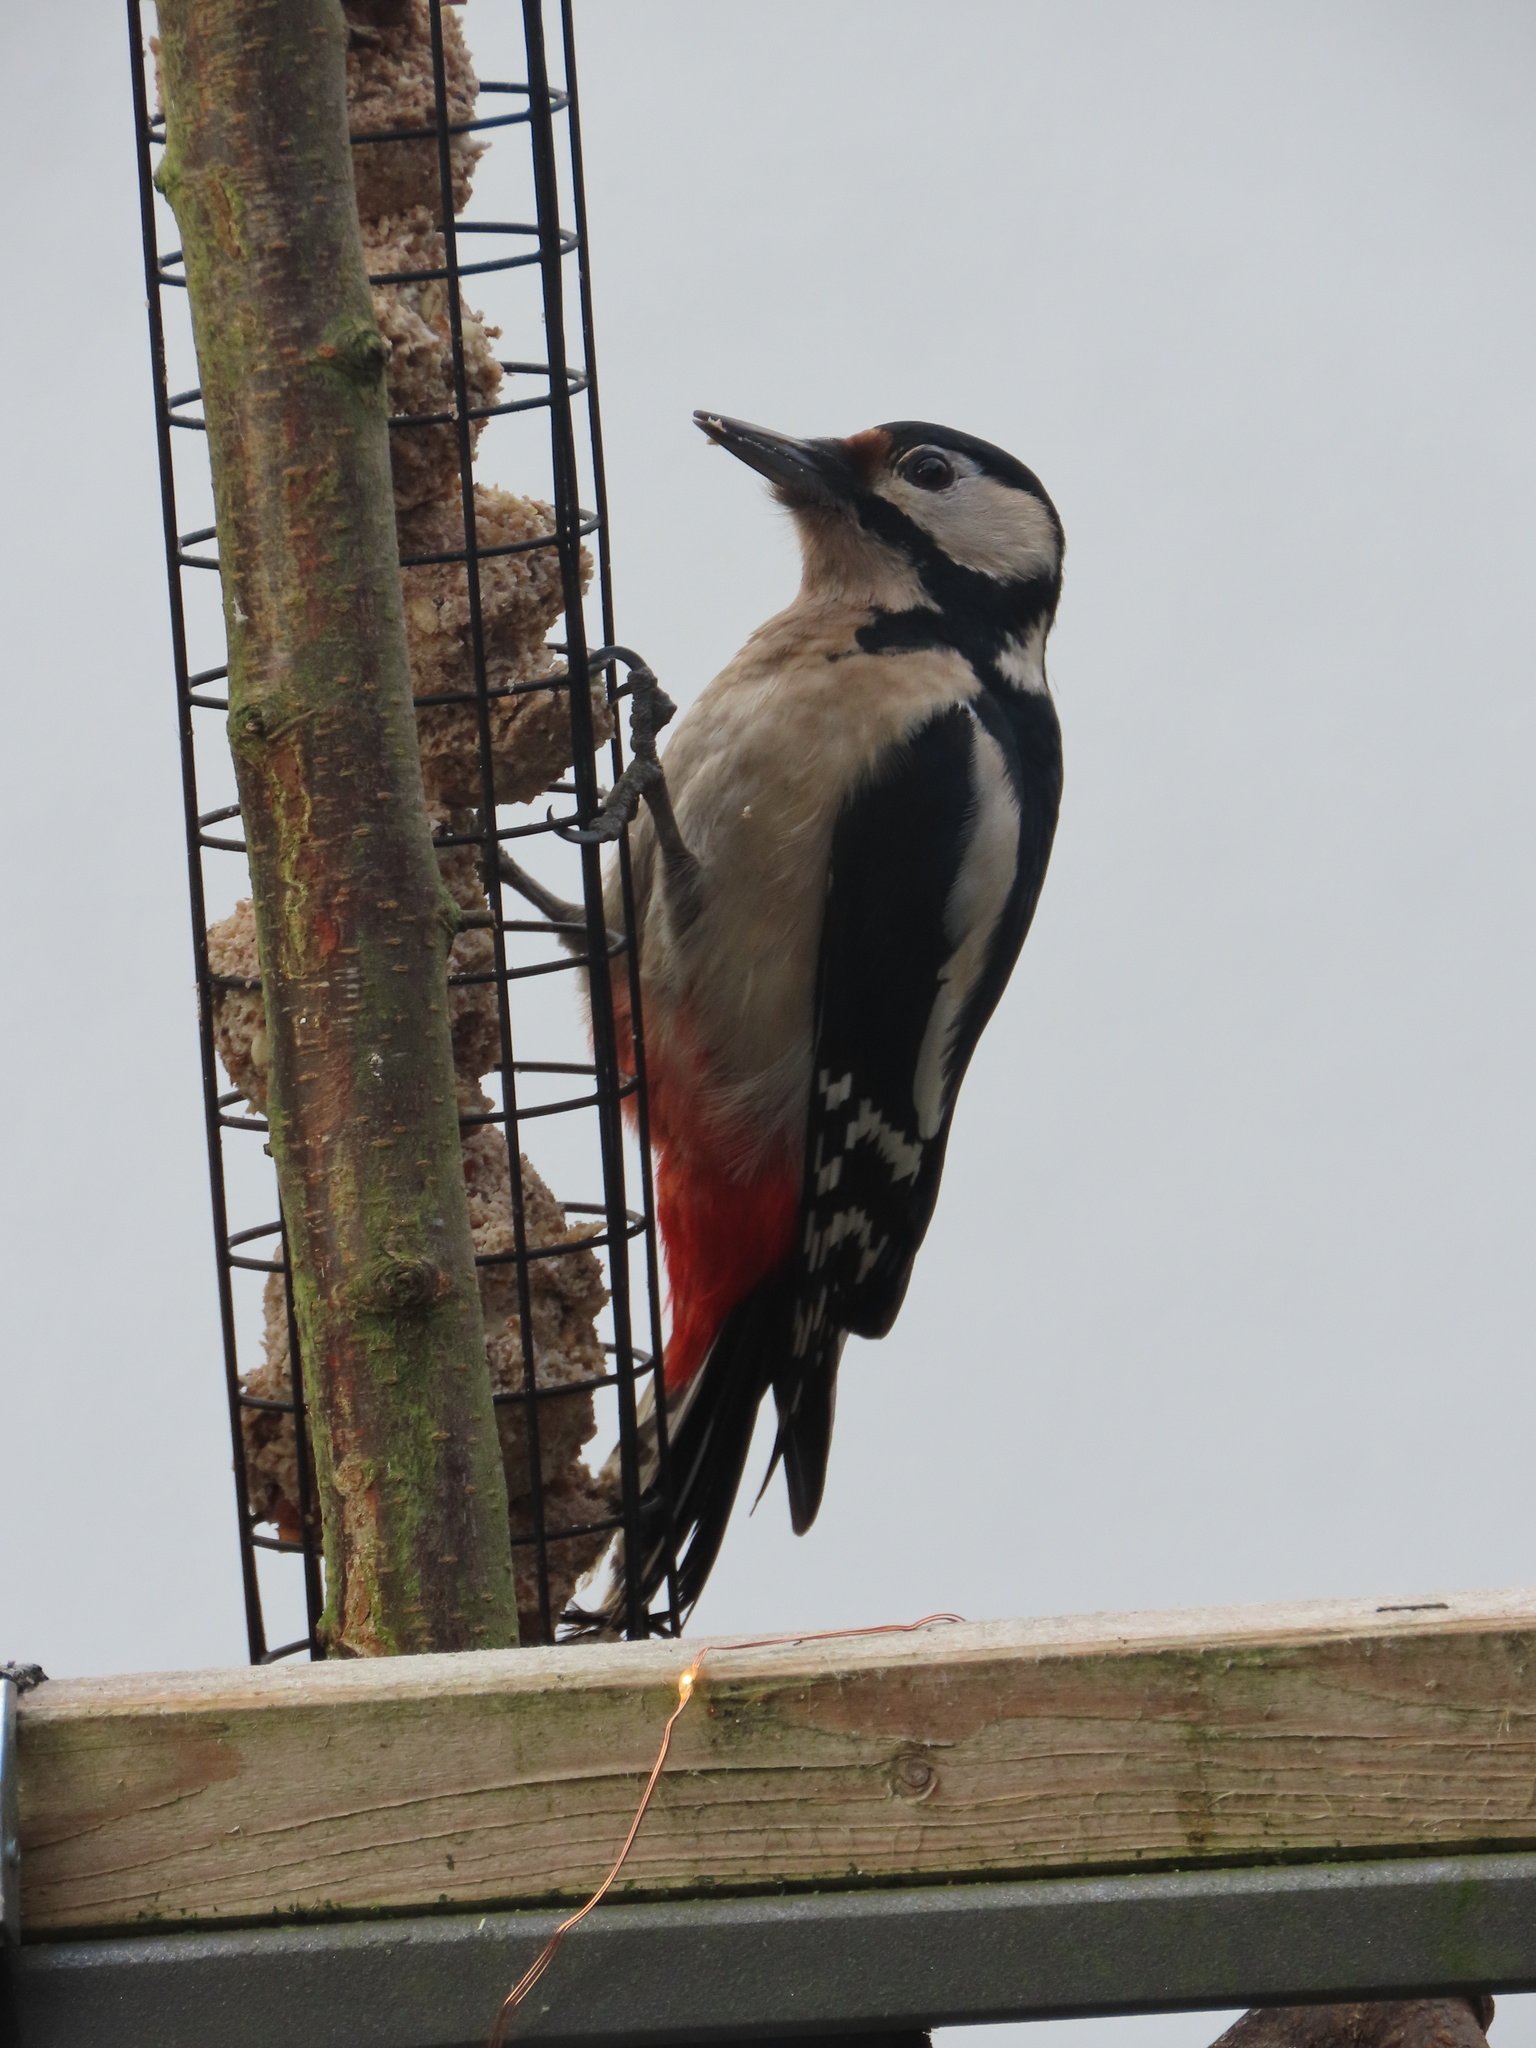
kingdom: Animalia
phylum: Chordata
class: Aves
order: Piciformes
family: Picidae
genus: Dendrocopos
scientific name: Dendrocopos major
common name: Great spotted woodpecker
